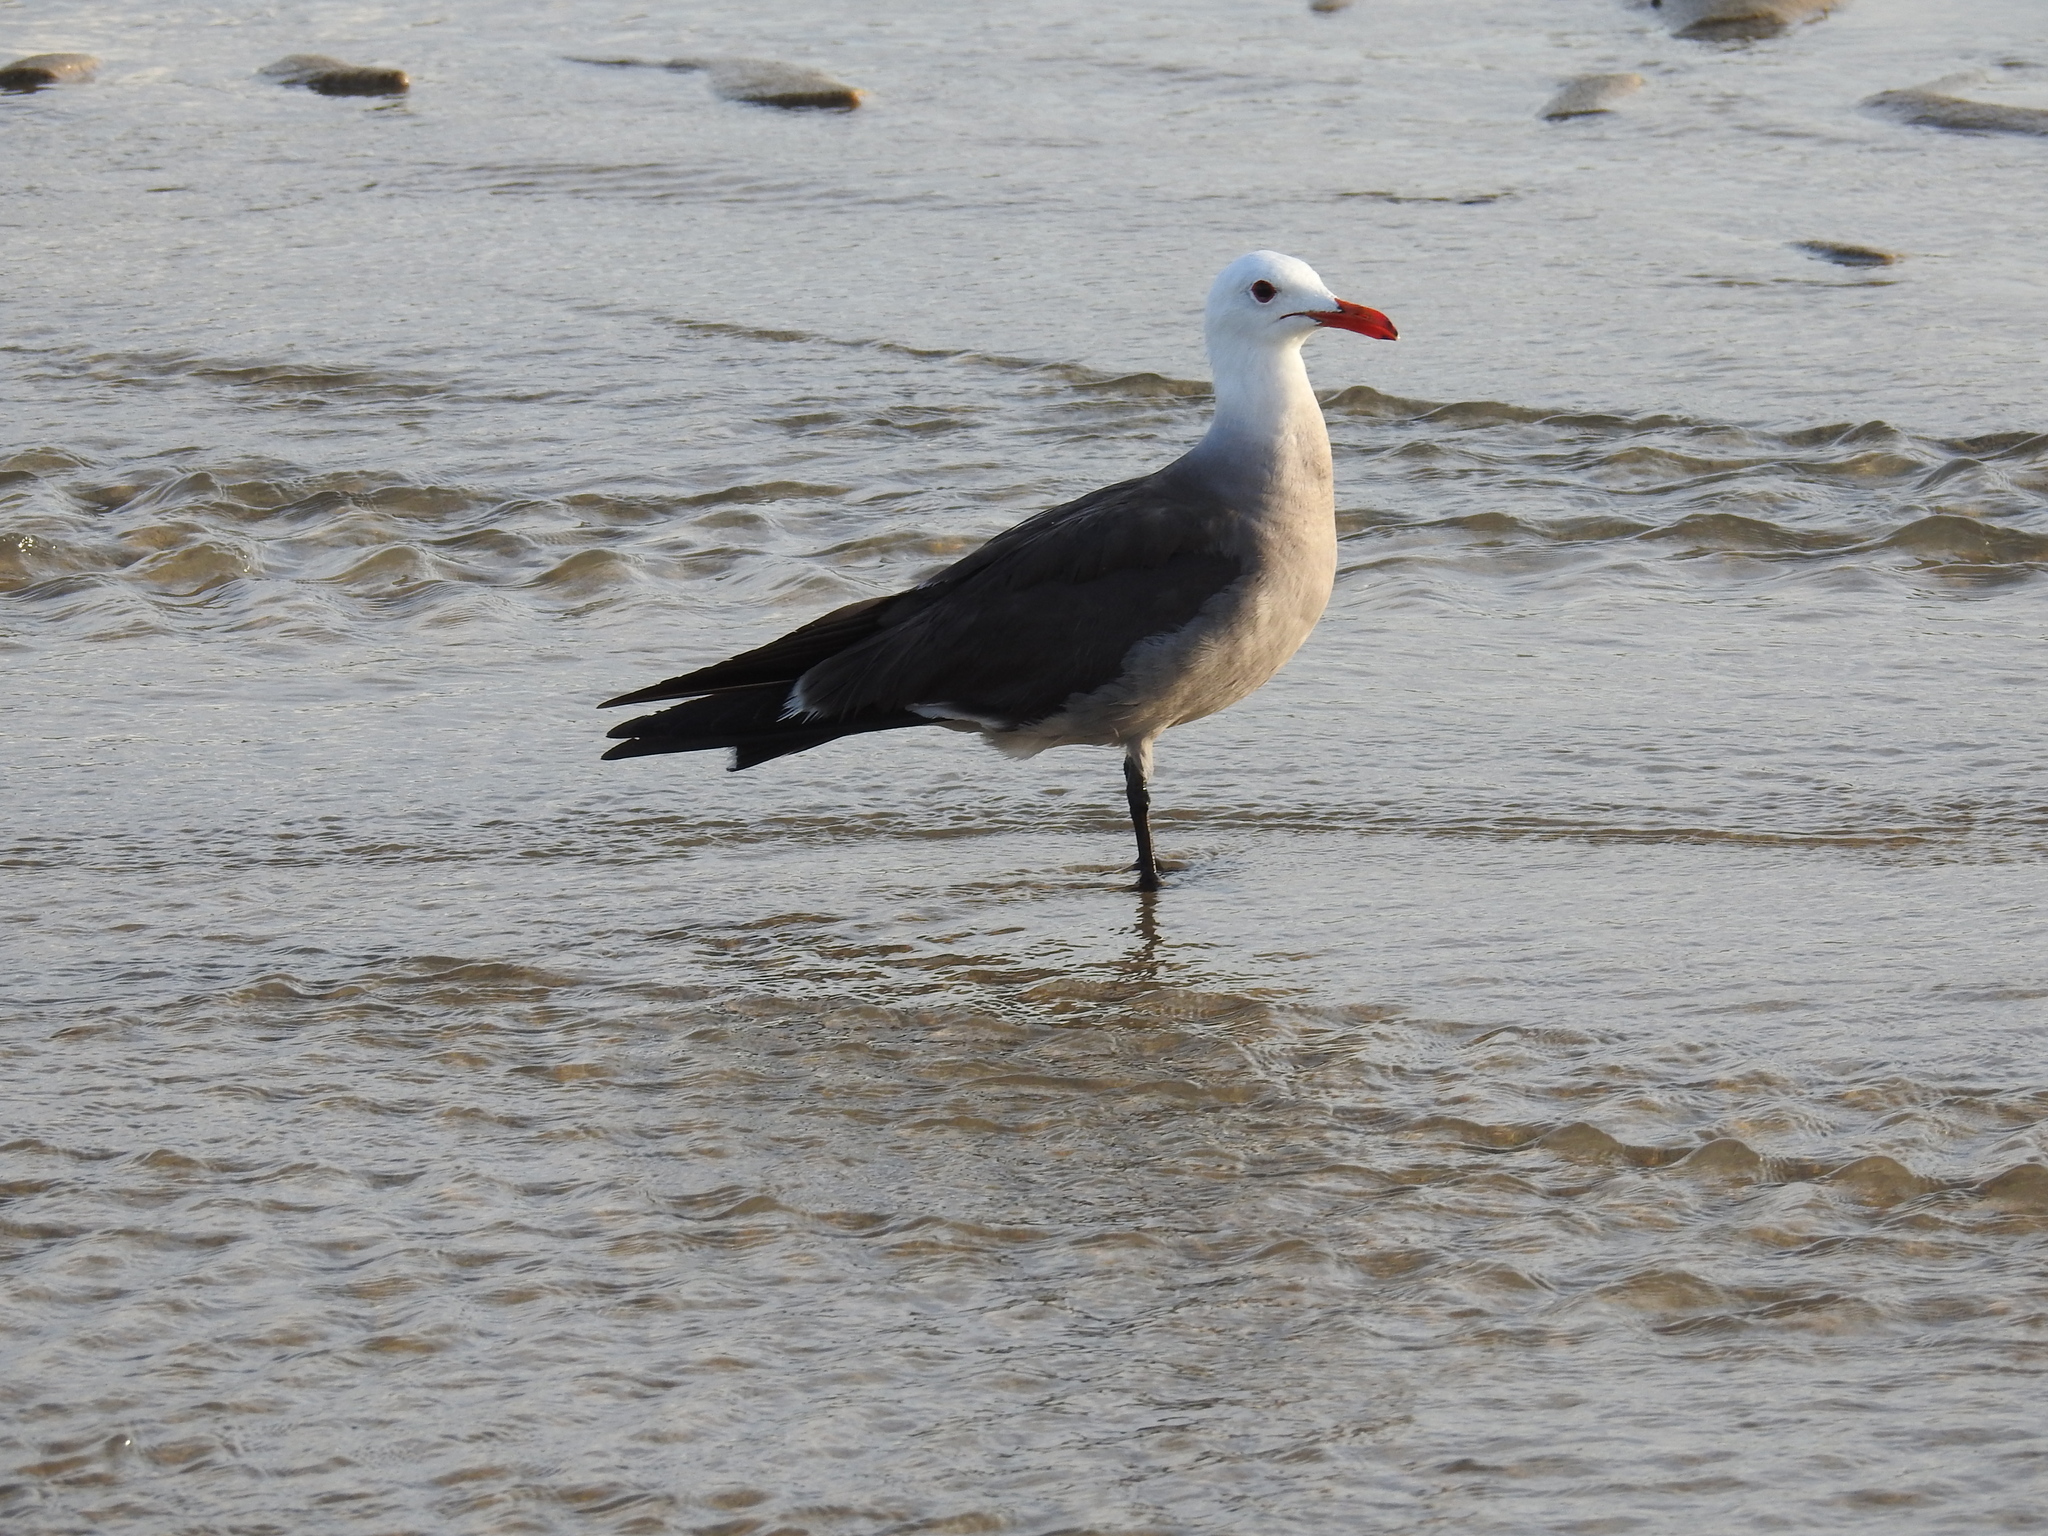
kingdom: Animalia
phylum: Chordata
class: Aves
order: Charadriiformes
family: Laridae
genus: Larus
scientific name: Larus heermanni
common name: Heermann's gull
